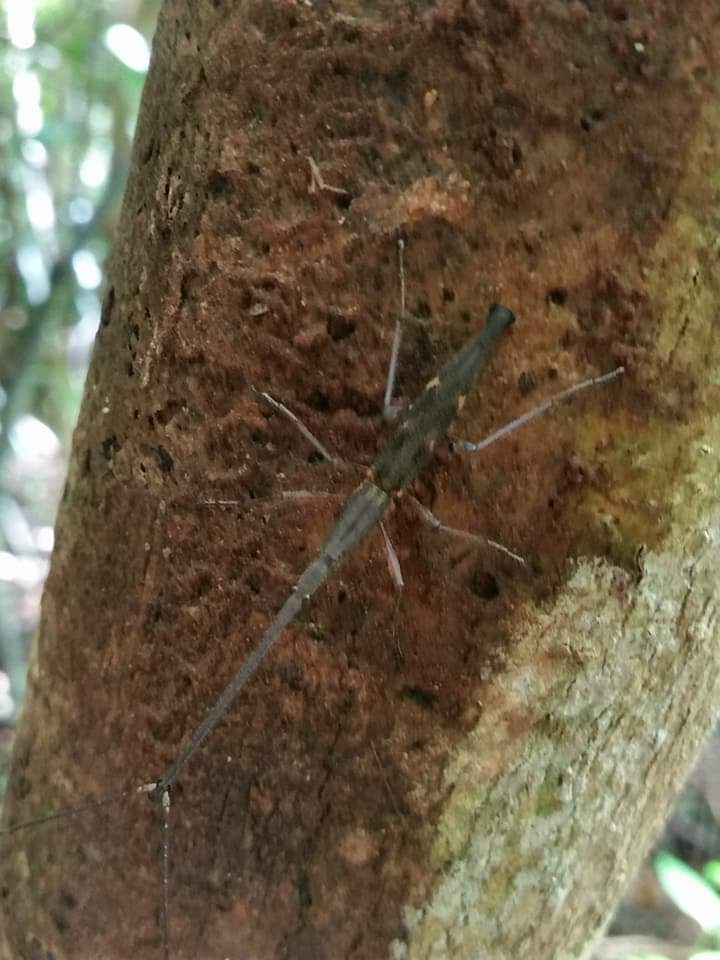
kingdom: Animalia
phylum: Arthropoda
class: Insecta
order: Coleoptera
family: Brentidae
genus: Lasiorhynchus
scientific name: Lasiorhynchus barbicornis
